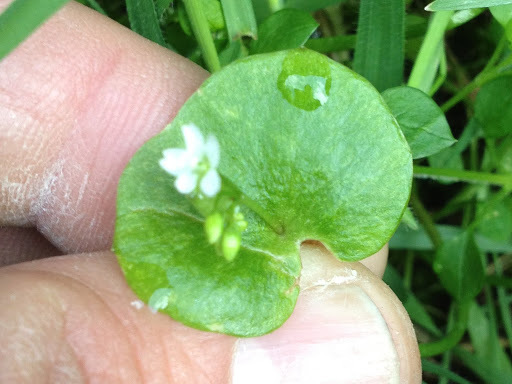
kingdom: Plantae
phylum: Tracheophyta
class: Magnoliopsida
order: Caryophyllales
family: Montiaceae
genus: Claytonia
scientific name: Claytonia perfoliata
